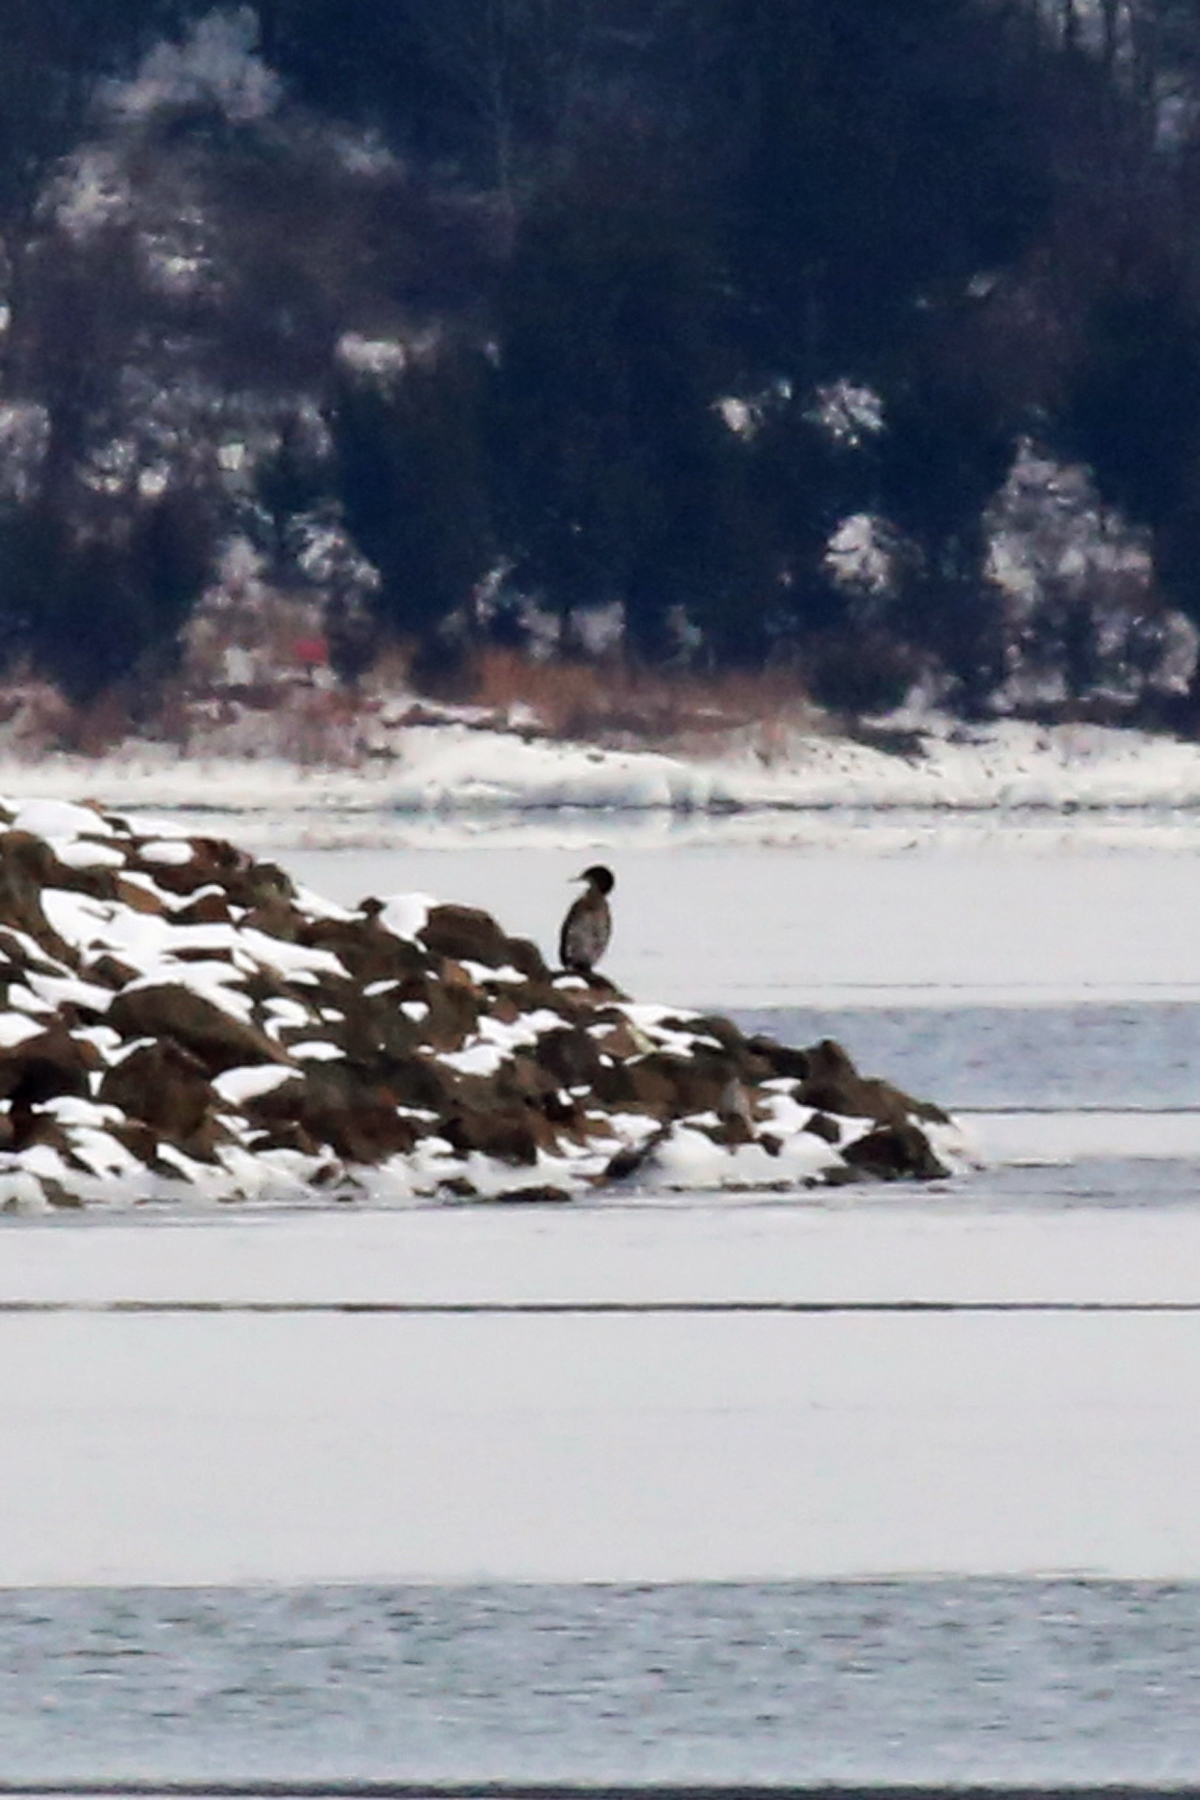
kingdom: Animalia
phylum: Chordata
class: Aves
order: Suliformes
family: Phalacrocoracidae
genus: Phalacrocorax
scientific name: Phalacrocorax carbo
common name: Great cormorant
